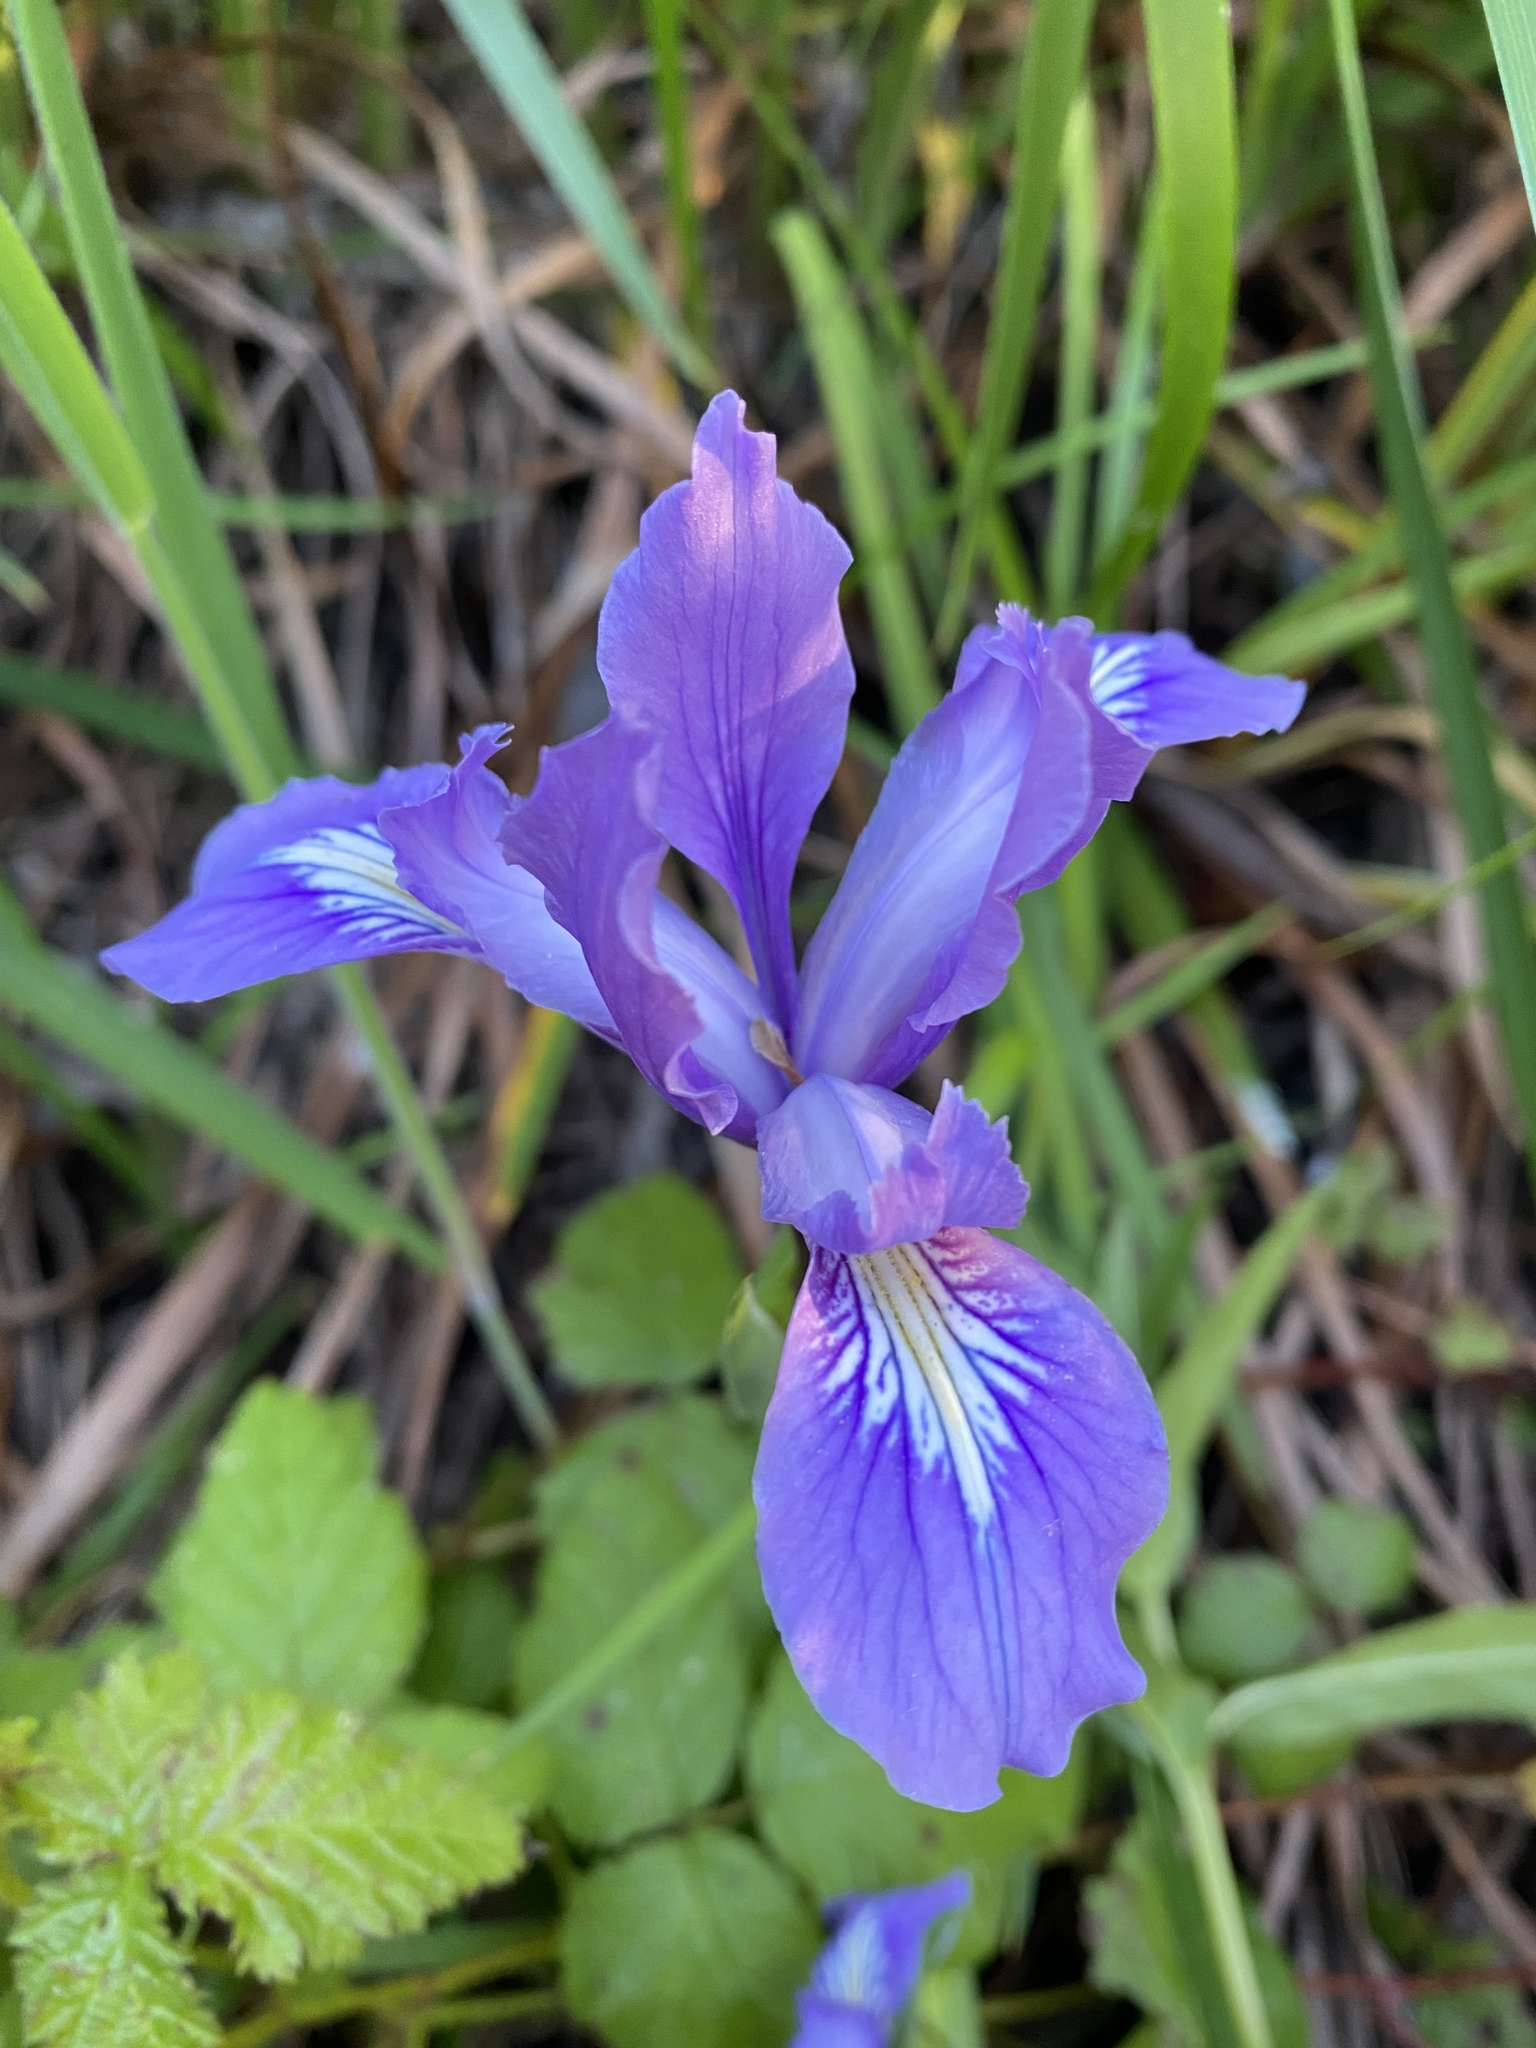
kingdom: Plantae
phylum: Tracheophyta
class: Liliopsida
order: Asparagales
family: Iridaceae
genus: Iris
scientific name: Iris douglasiana
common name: Marin iris
